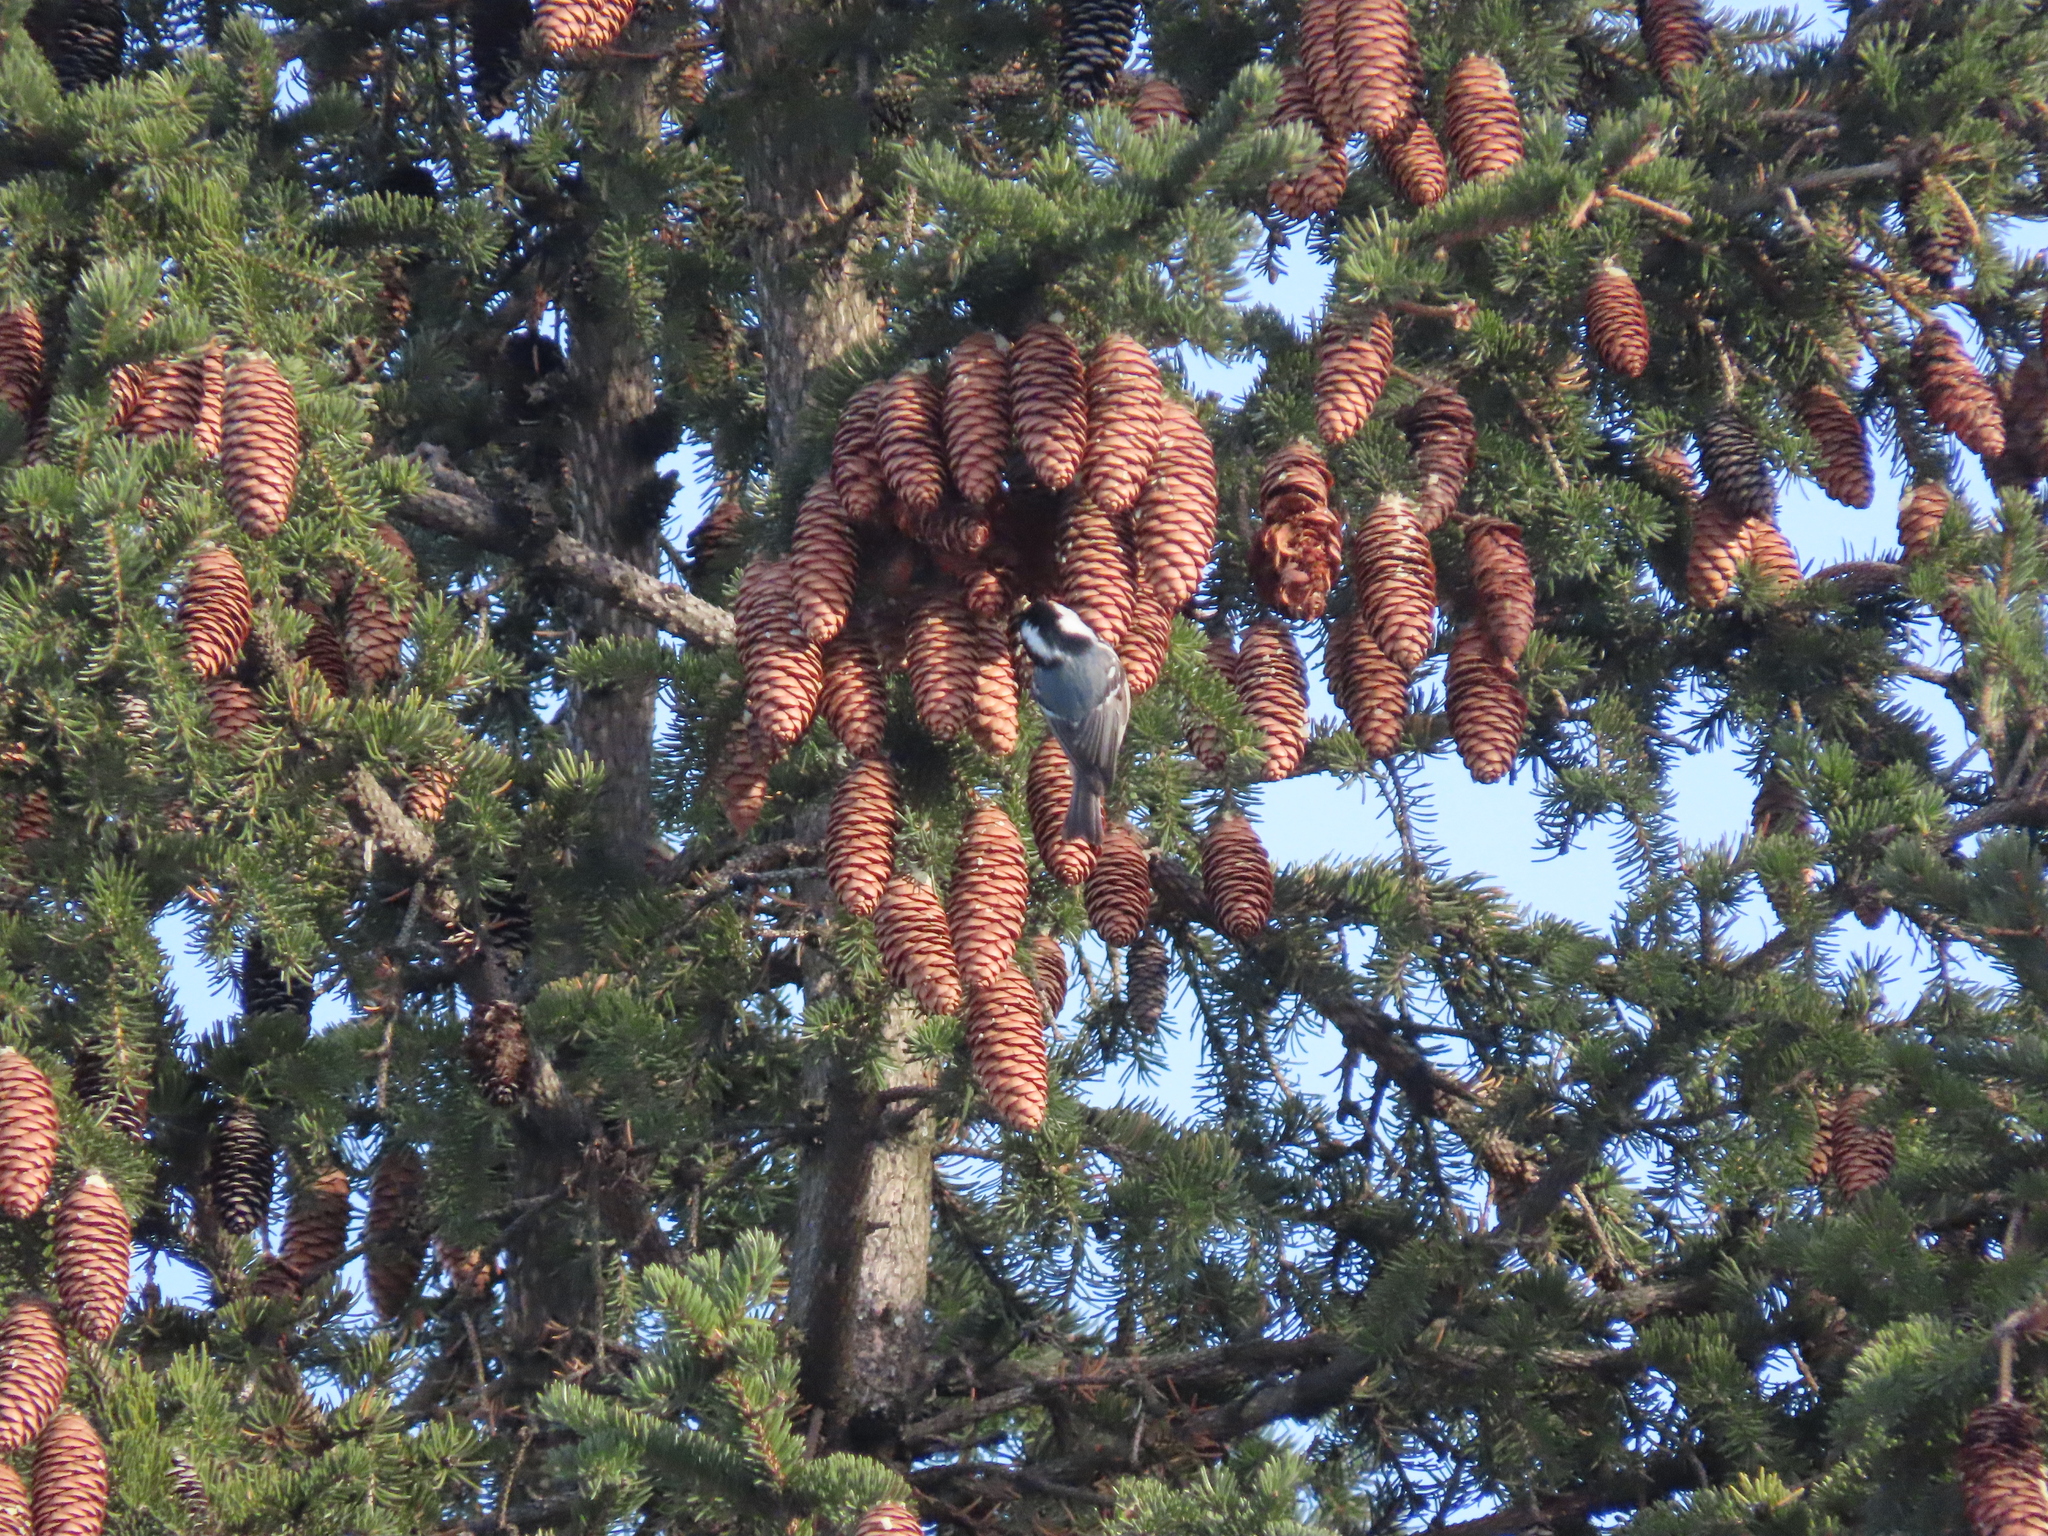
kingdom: Animalia
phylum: Chordata
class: Aves
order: Passeriformes
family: Paridae
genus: Periparus
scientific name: Periparus ater
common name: Coal tit
